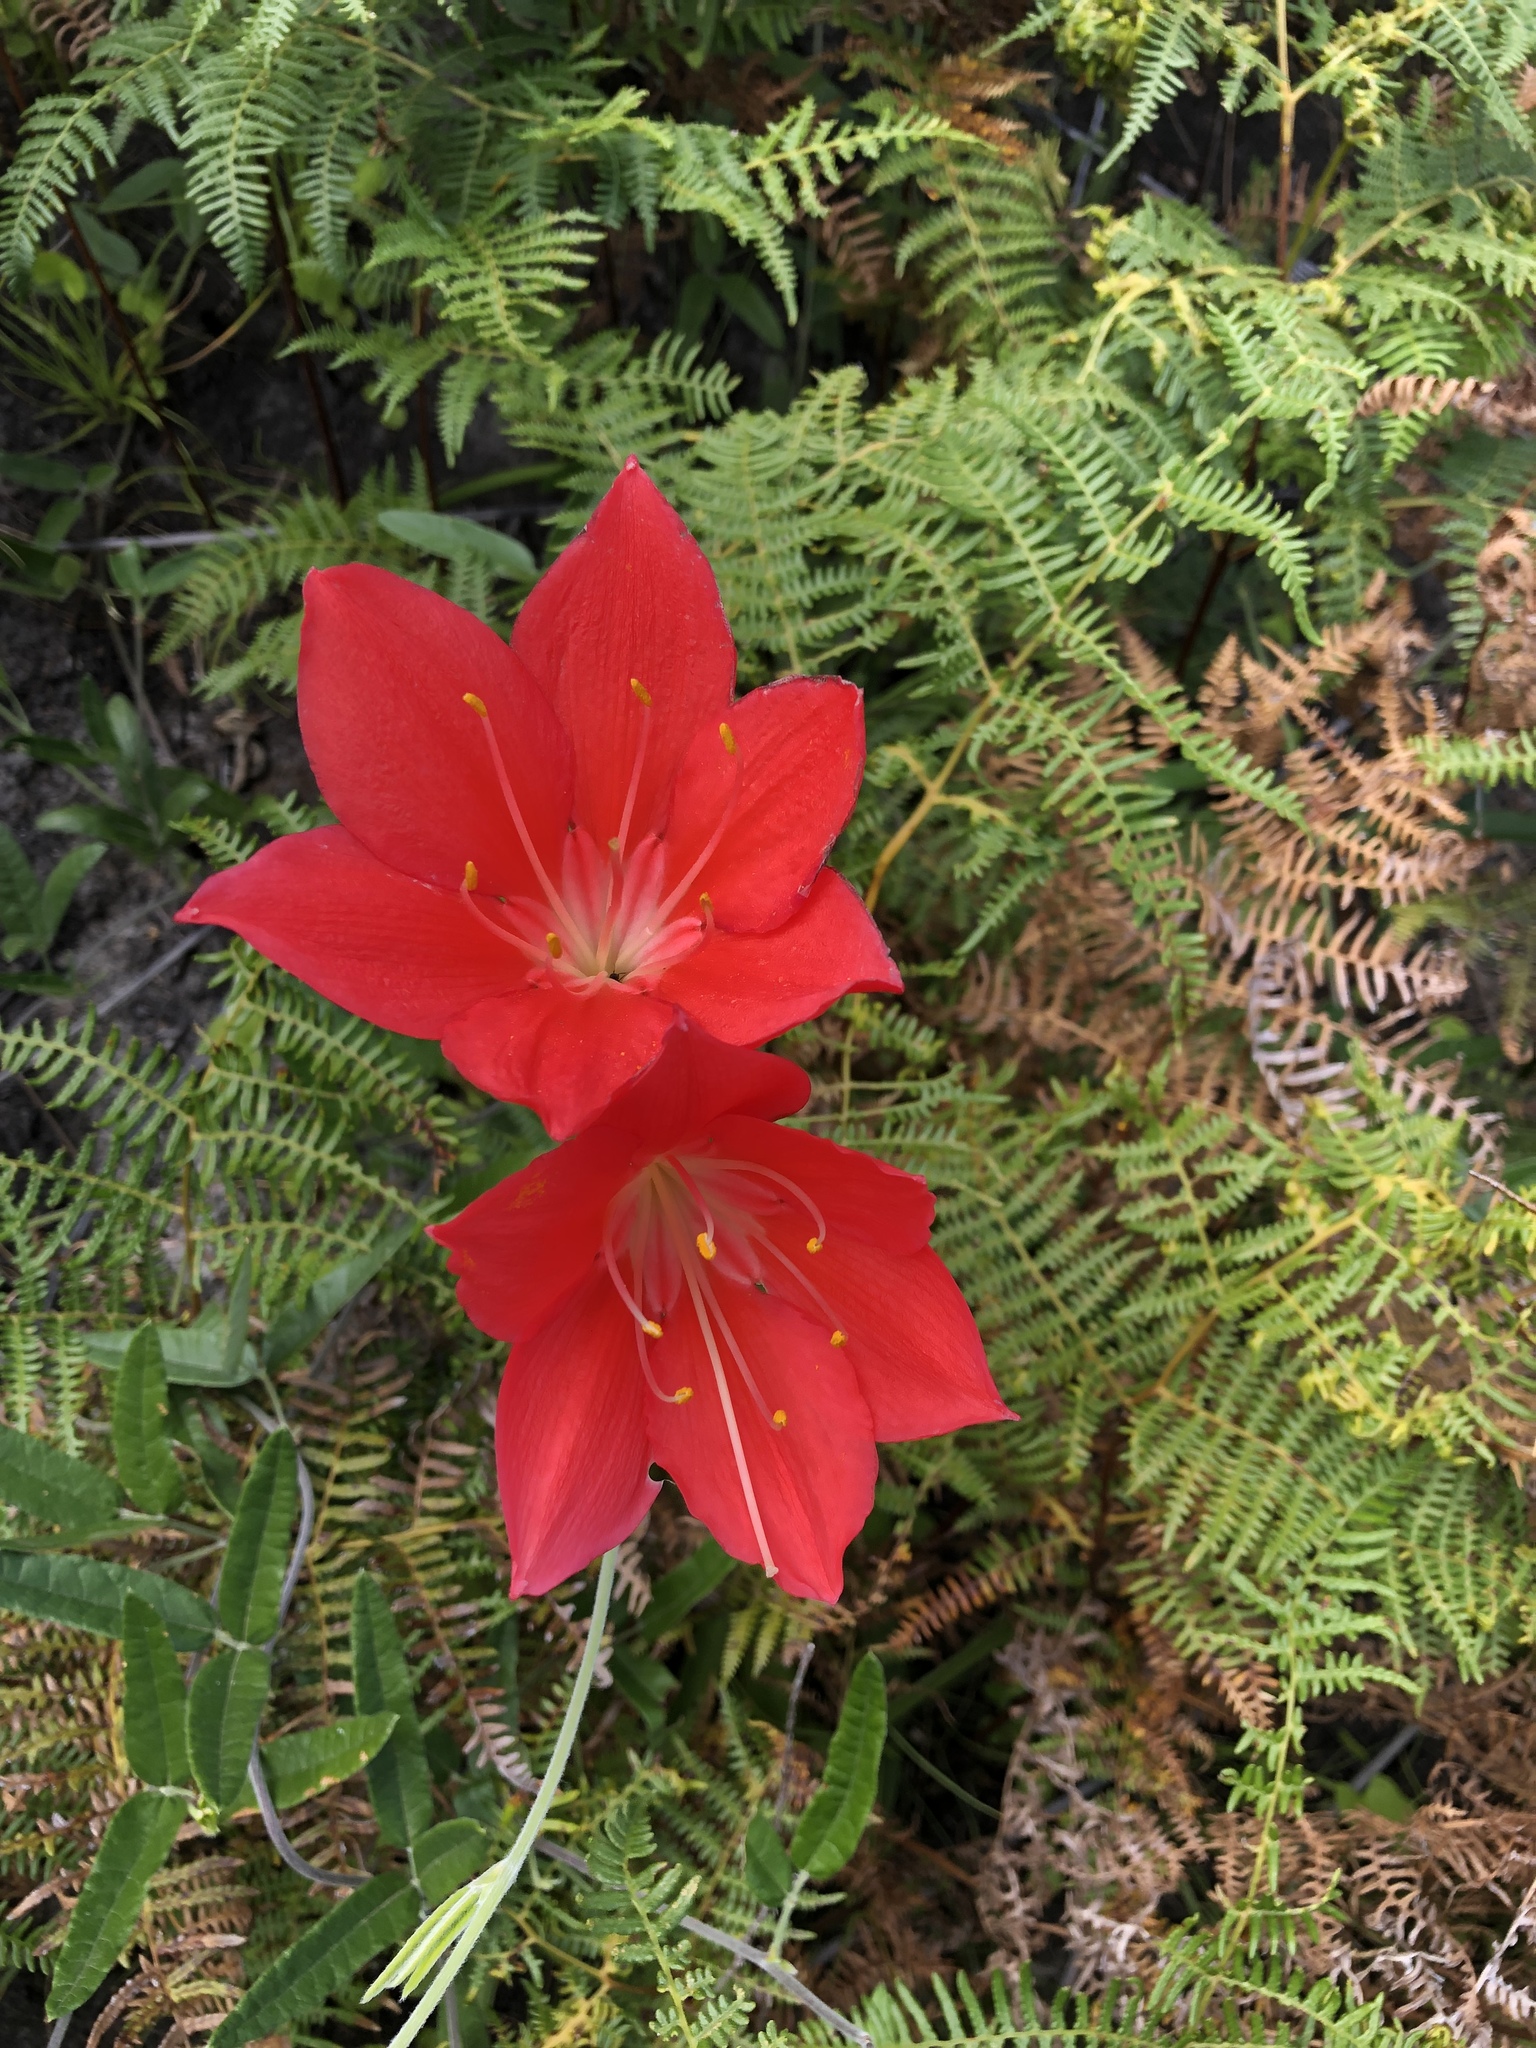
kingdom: Plantae
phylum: Tracheophyta
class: Liliopsida
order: Asparagales
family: Amaryllidaceae
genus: Cyrtanthus
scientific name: Cyrtanthus elatus
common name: Scarborough-lily
